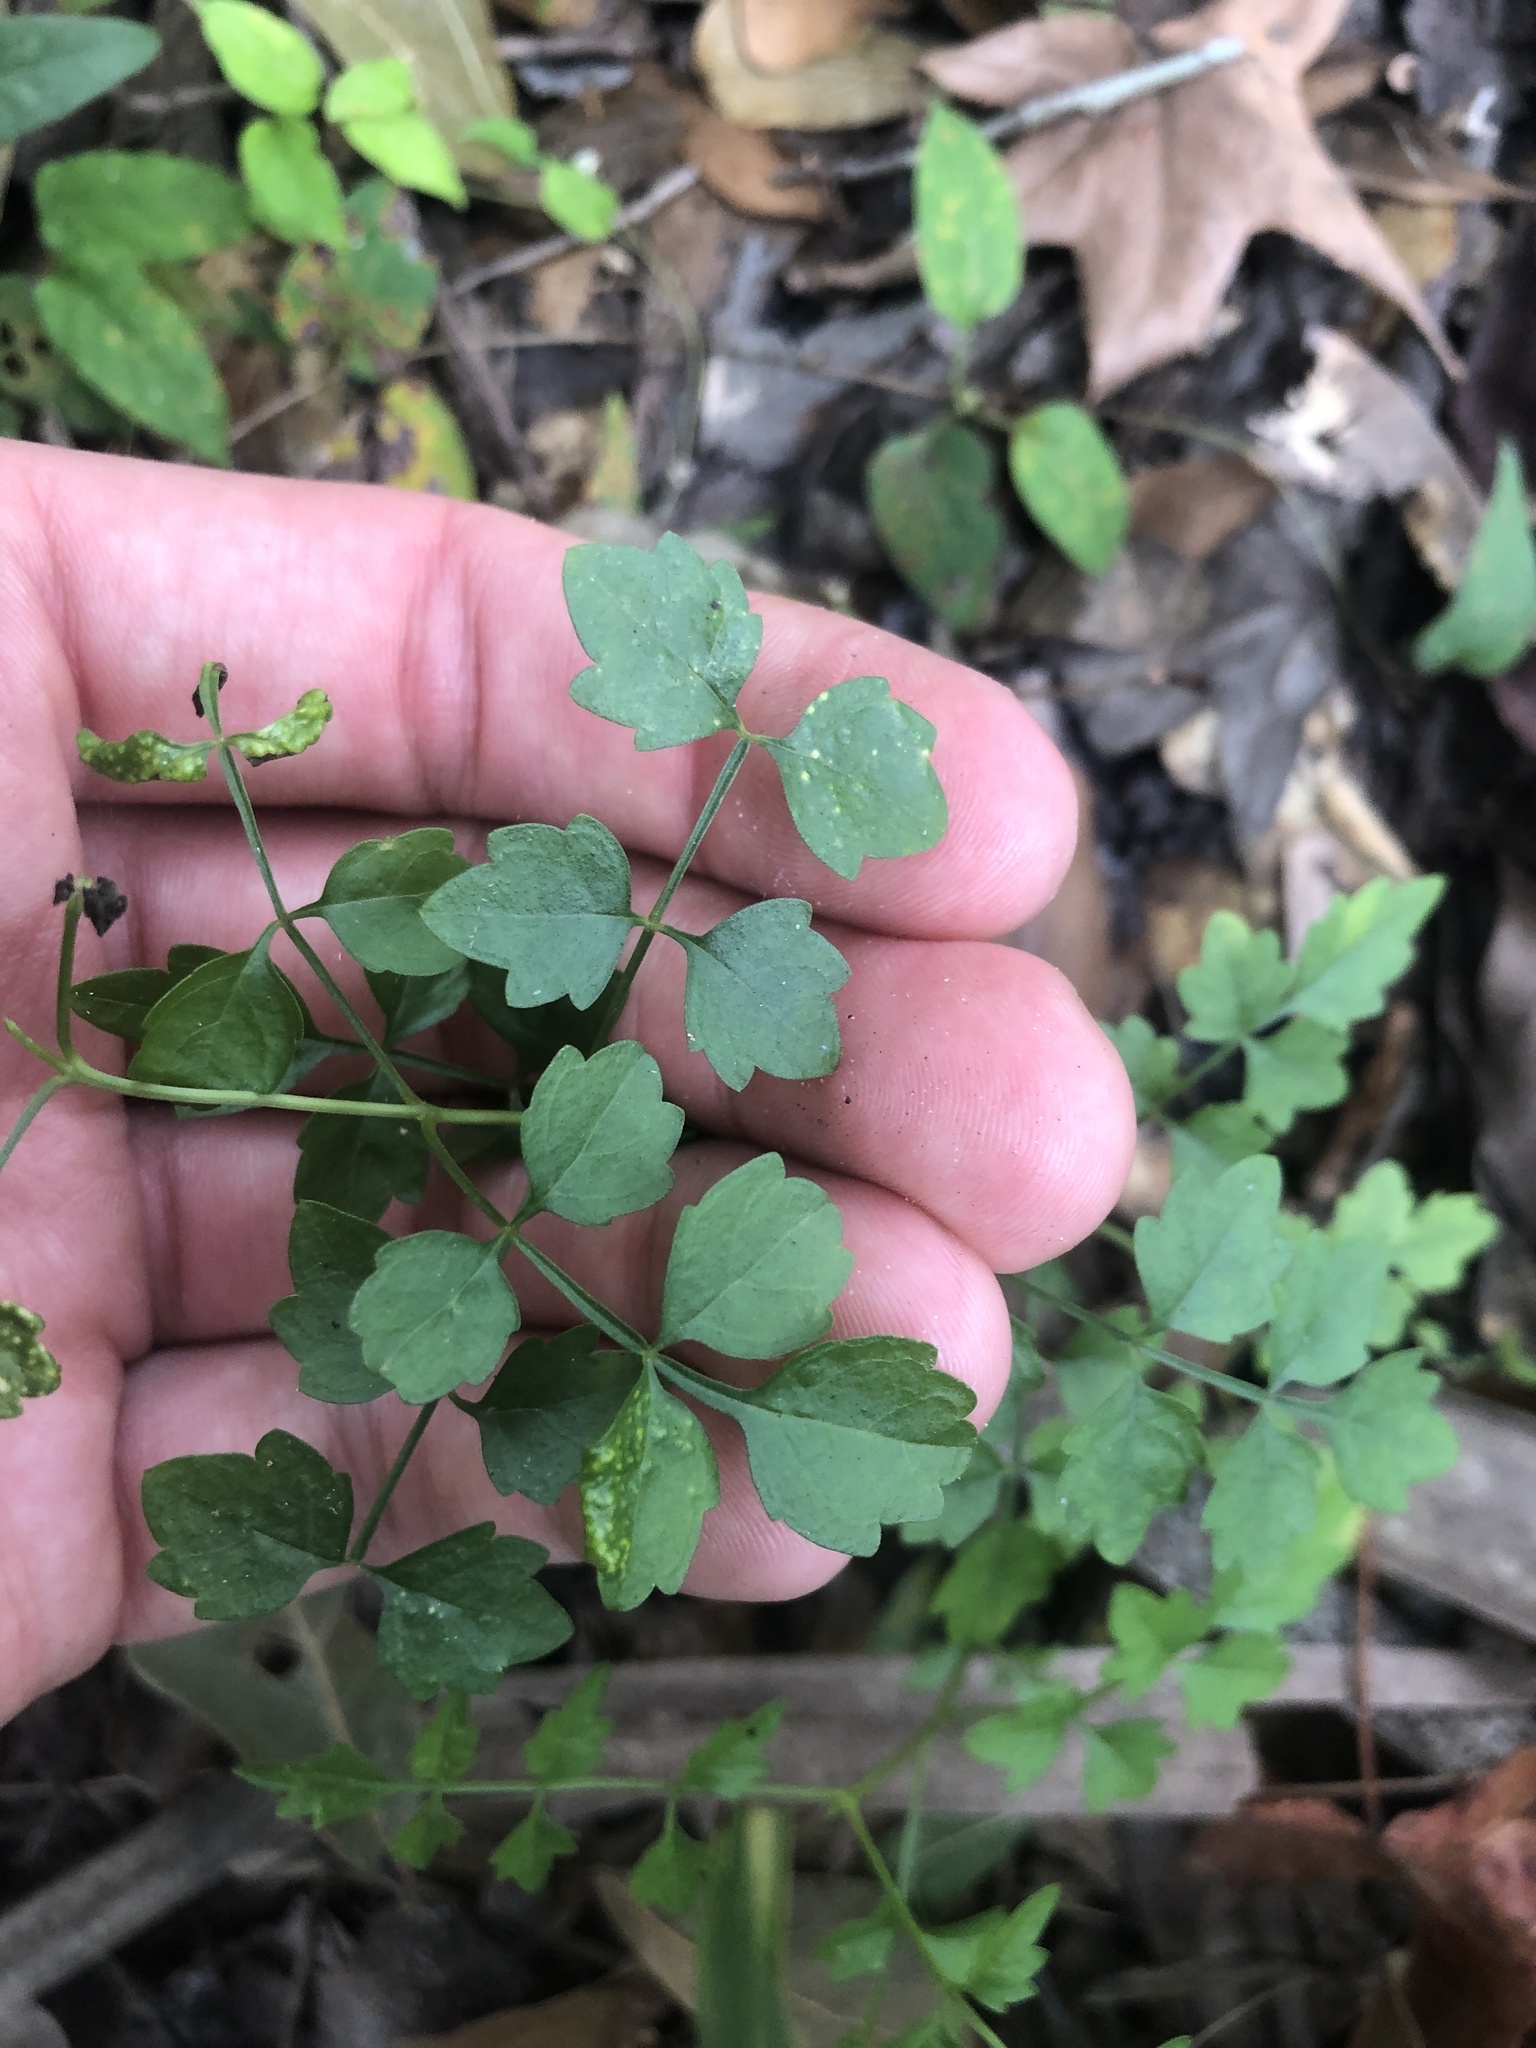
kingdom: Plantae
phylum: Tracheophyta
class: Magnoliopsida
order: Lamiales
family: Bignoniaceae
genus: Campsis
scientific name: Campsis radicans
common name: Trumpet-creeper
